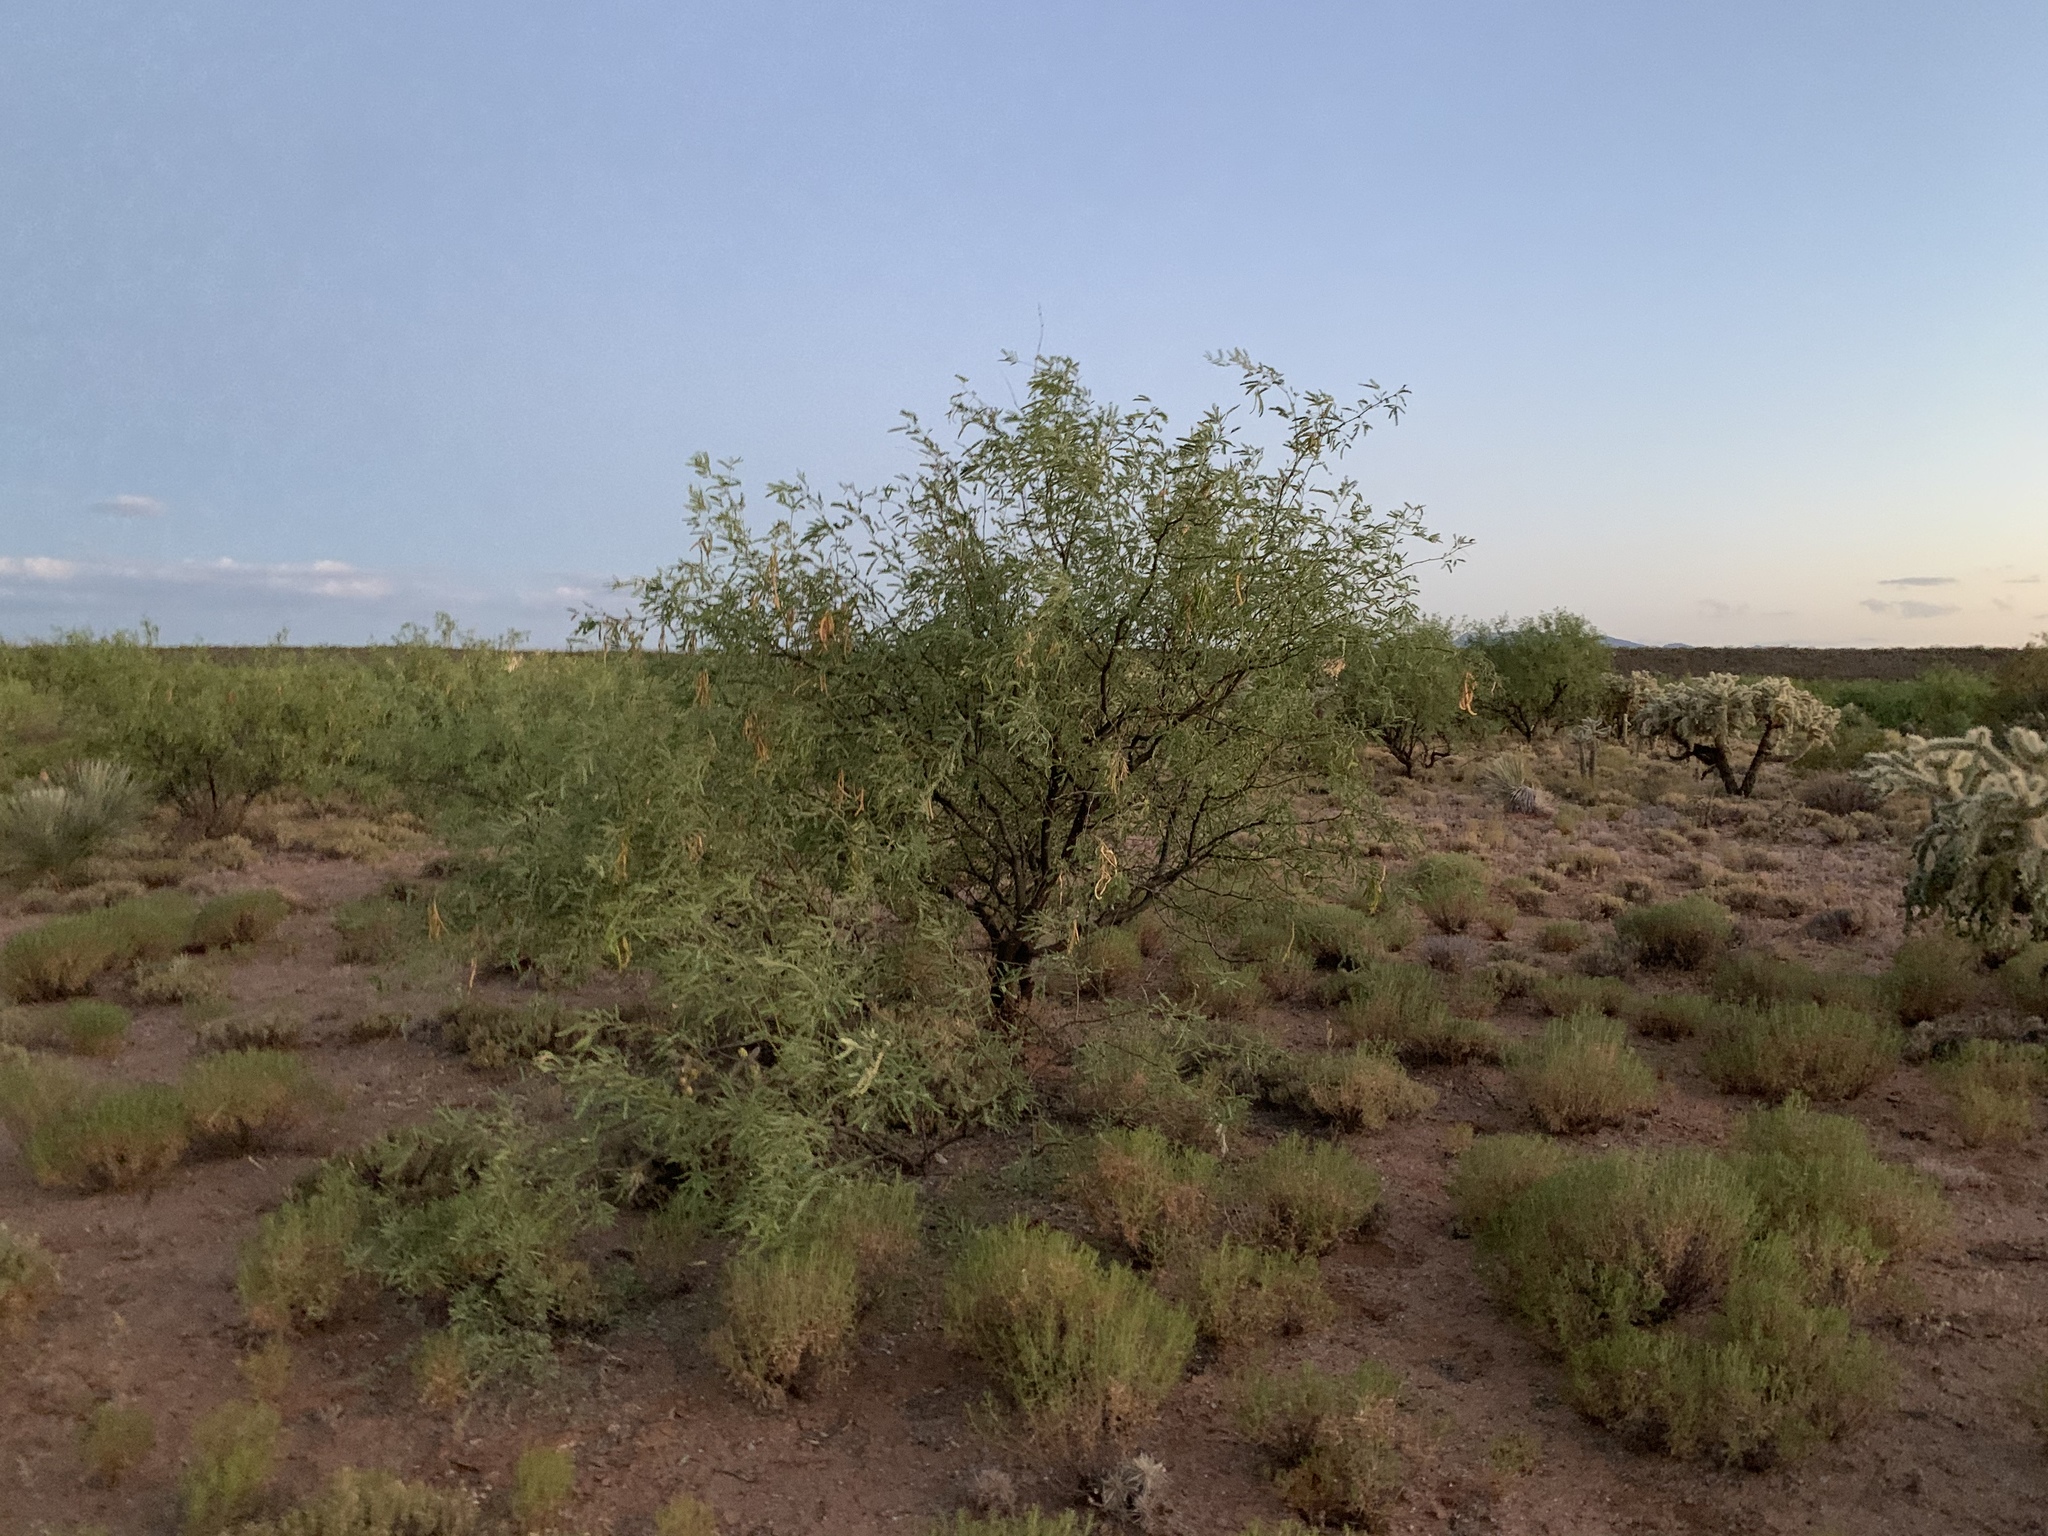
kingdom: Plantae
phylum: Tracheophyta
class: Magnoliopsida
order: Fabales
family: Fabaceae
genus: Prosopis
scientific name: Prosopis velutina
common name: Velvet mesquite
